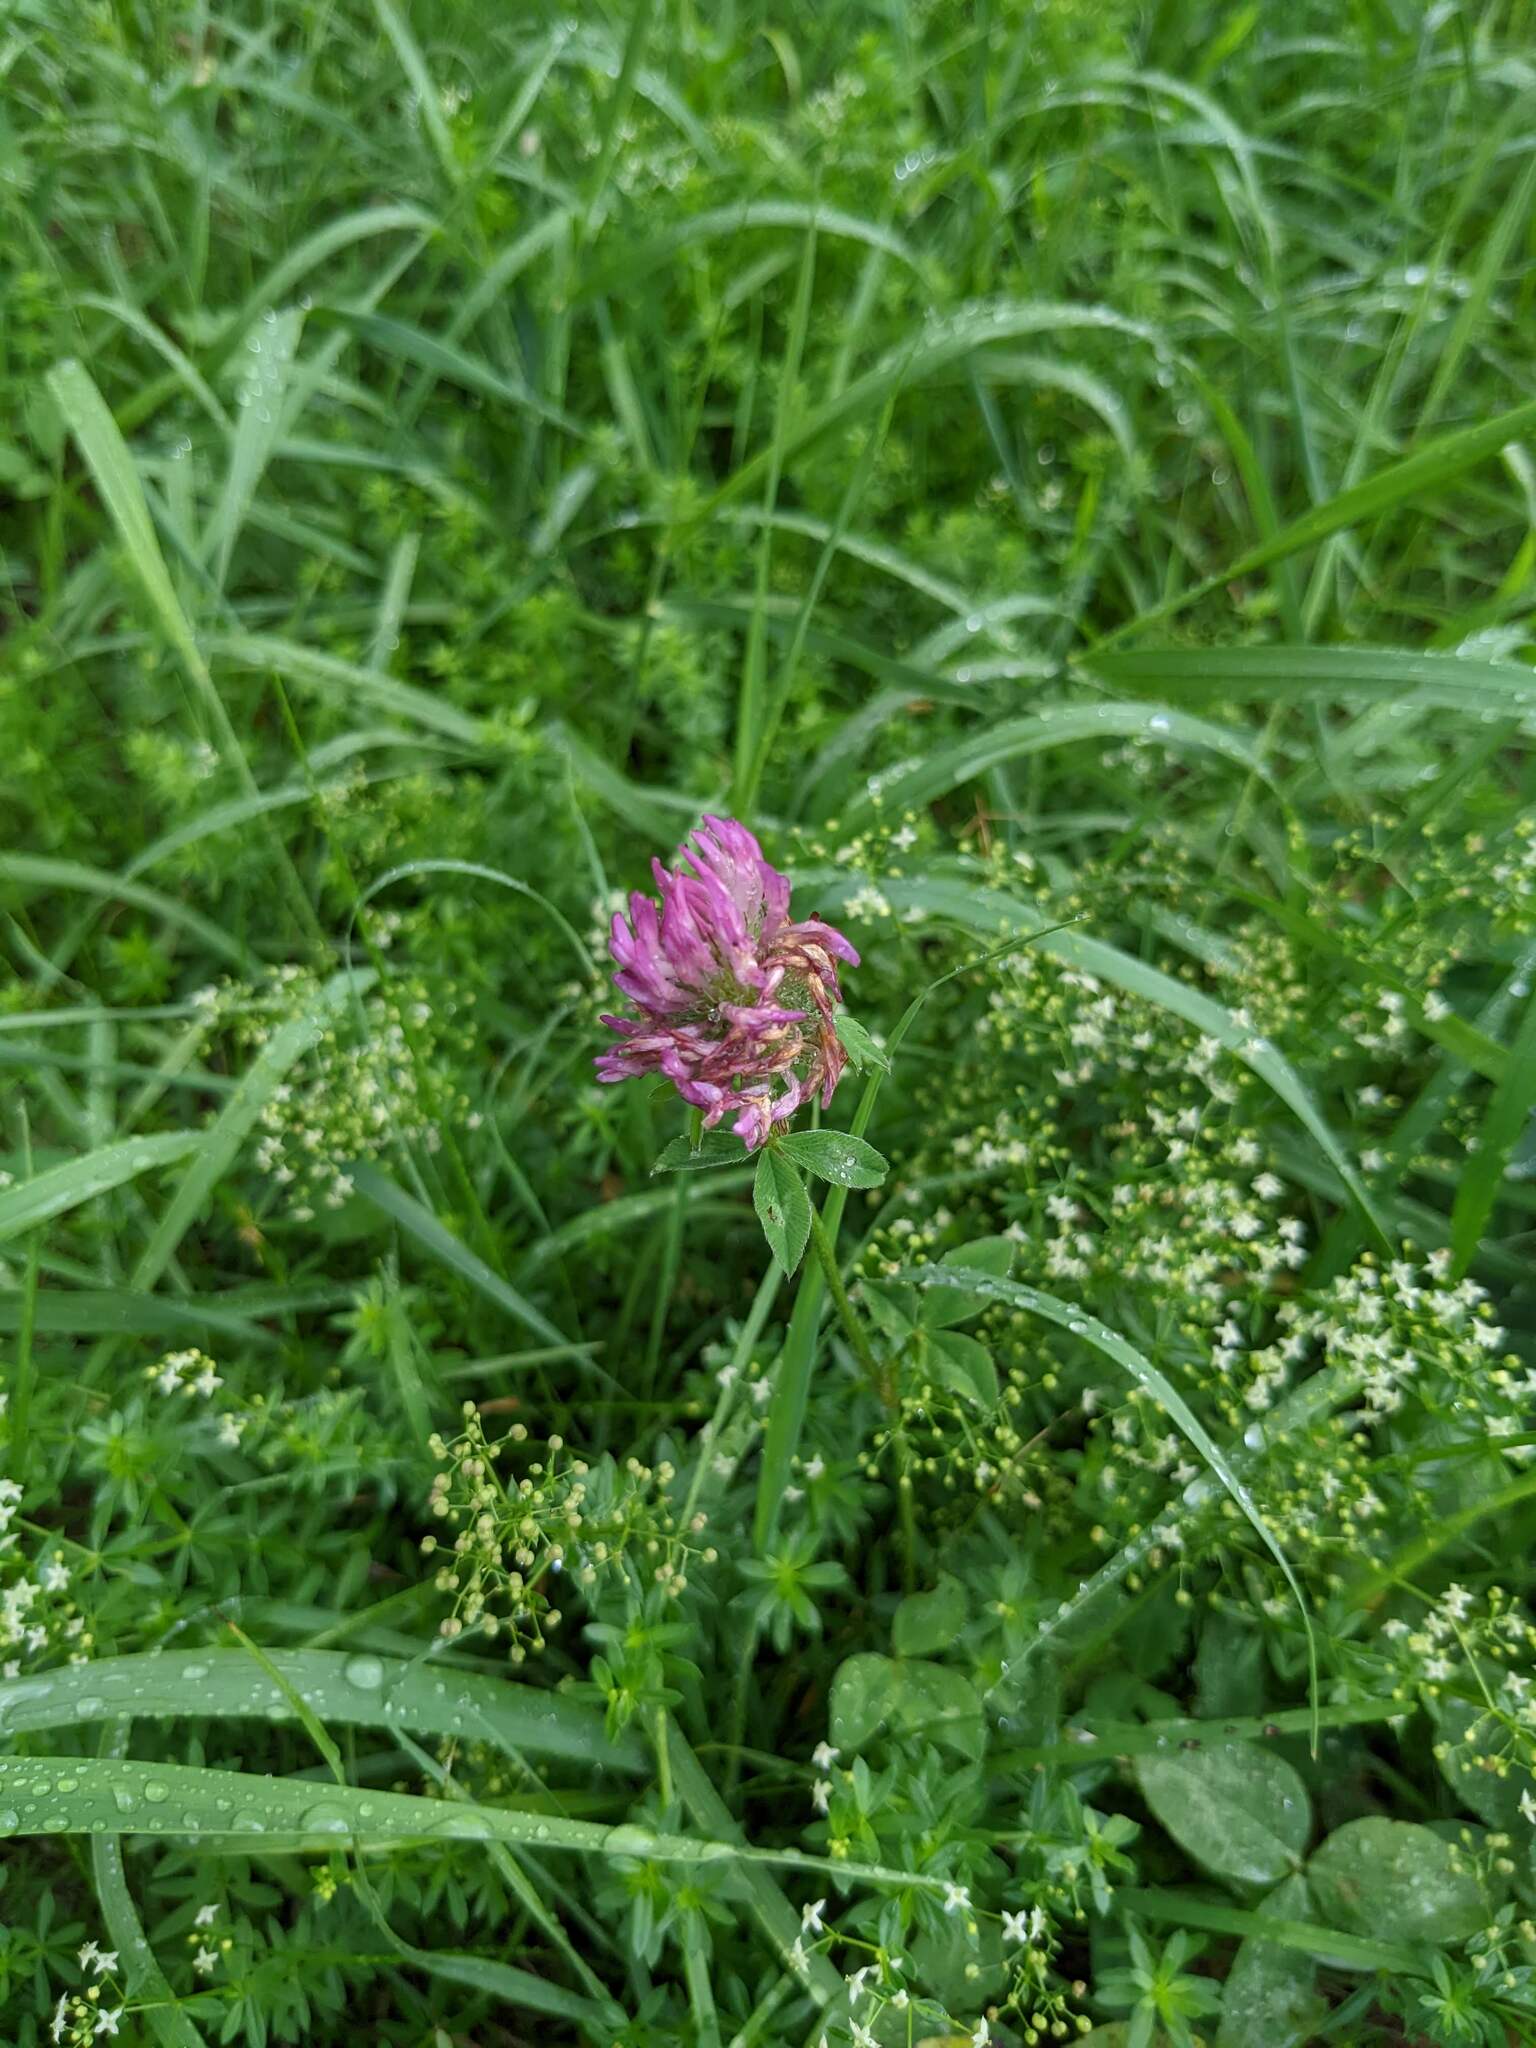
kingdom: Plantae
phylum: Tracheophyta
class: Magnoliopsida
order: Fabales
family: Fabaceae
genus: Trifolium
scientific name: Trifolium pratense
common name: Red clover
